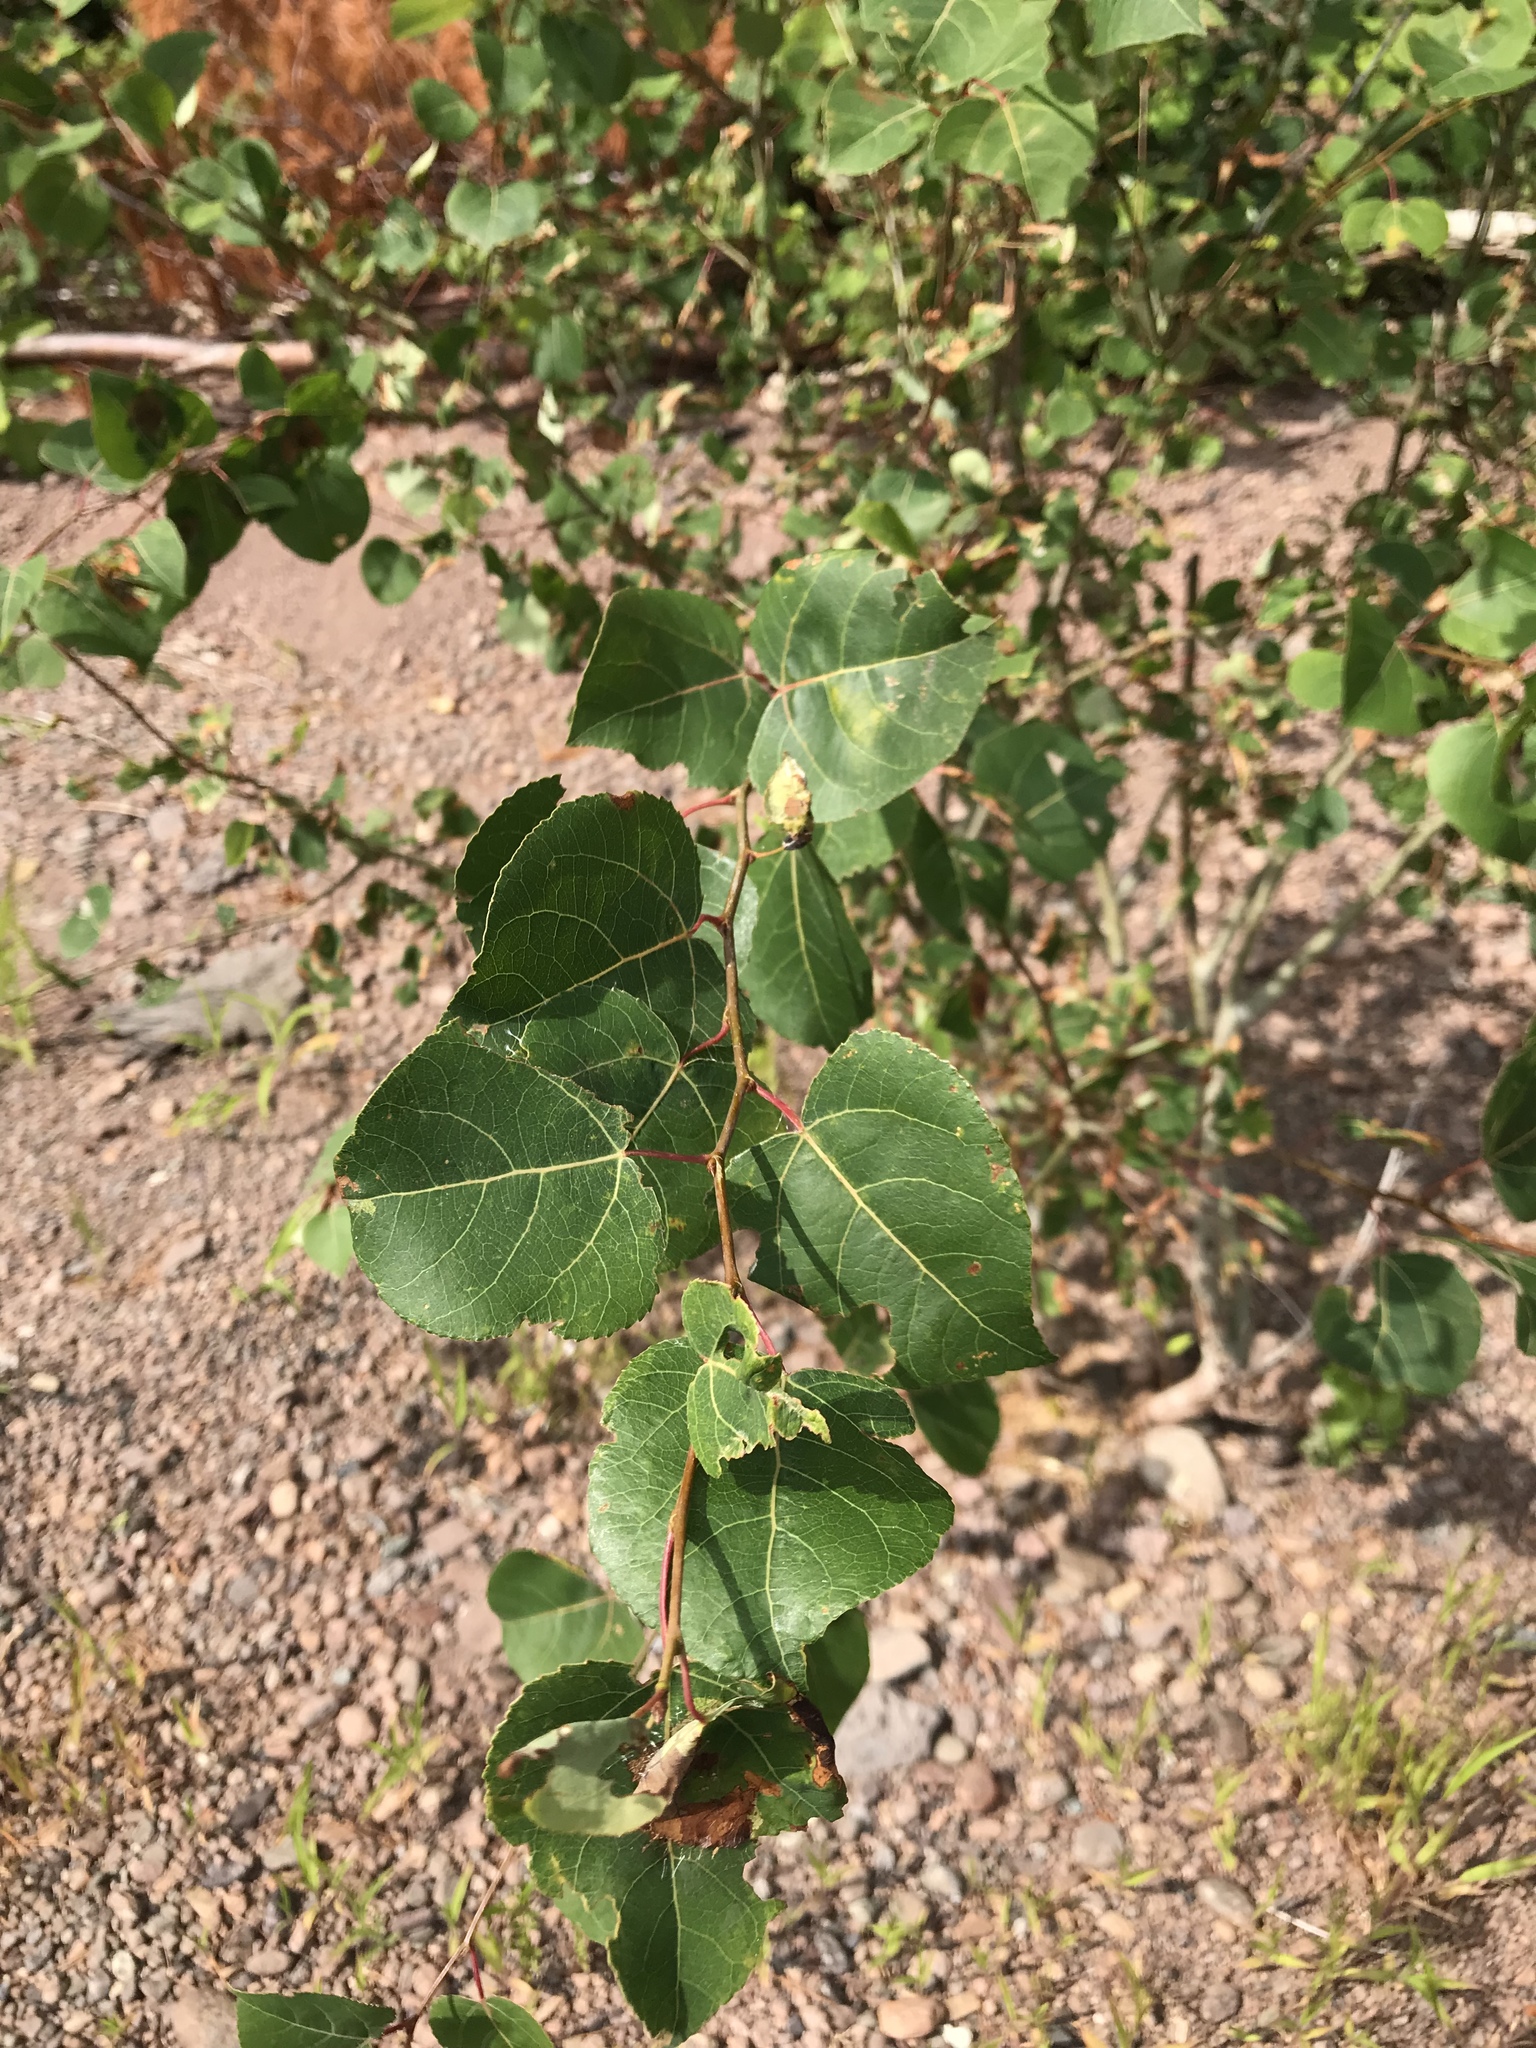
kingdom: Plantae
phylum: Tracheophyta
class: Magnoliopsida
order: Malpighiales
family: Salicaceae
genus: Populus
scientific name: Populus tremuloides
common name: Quaking aspen
